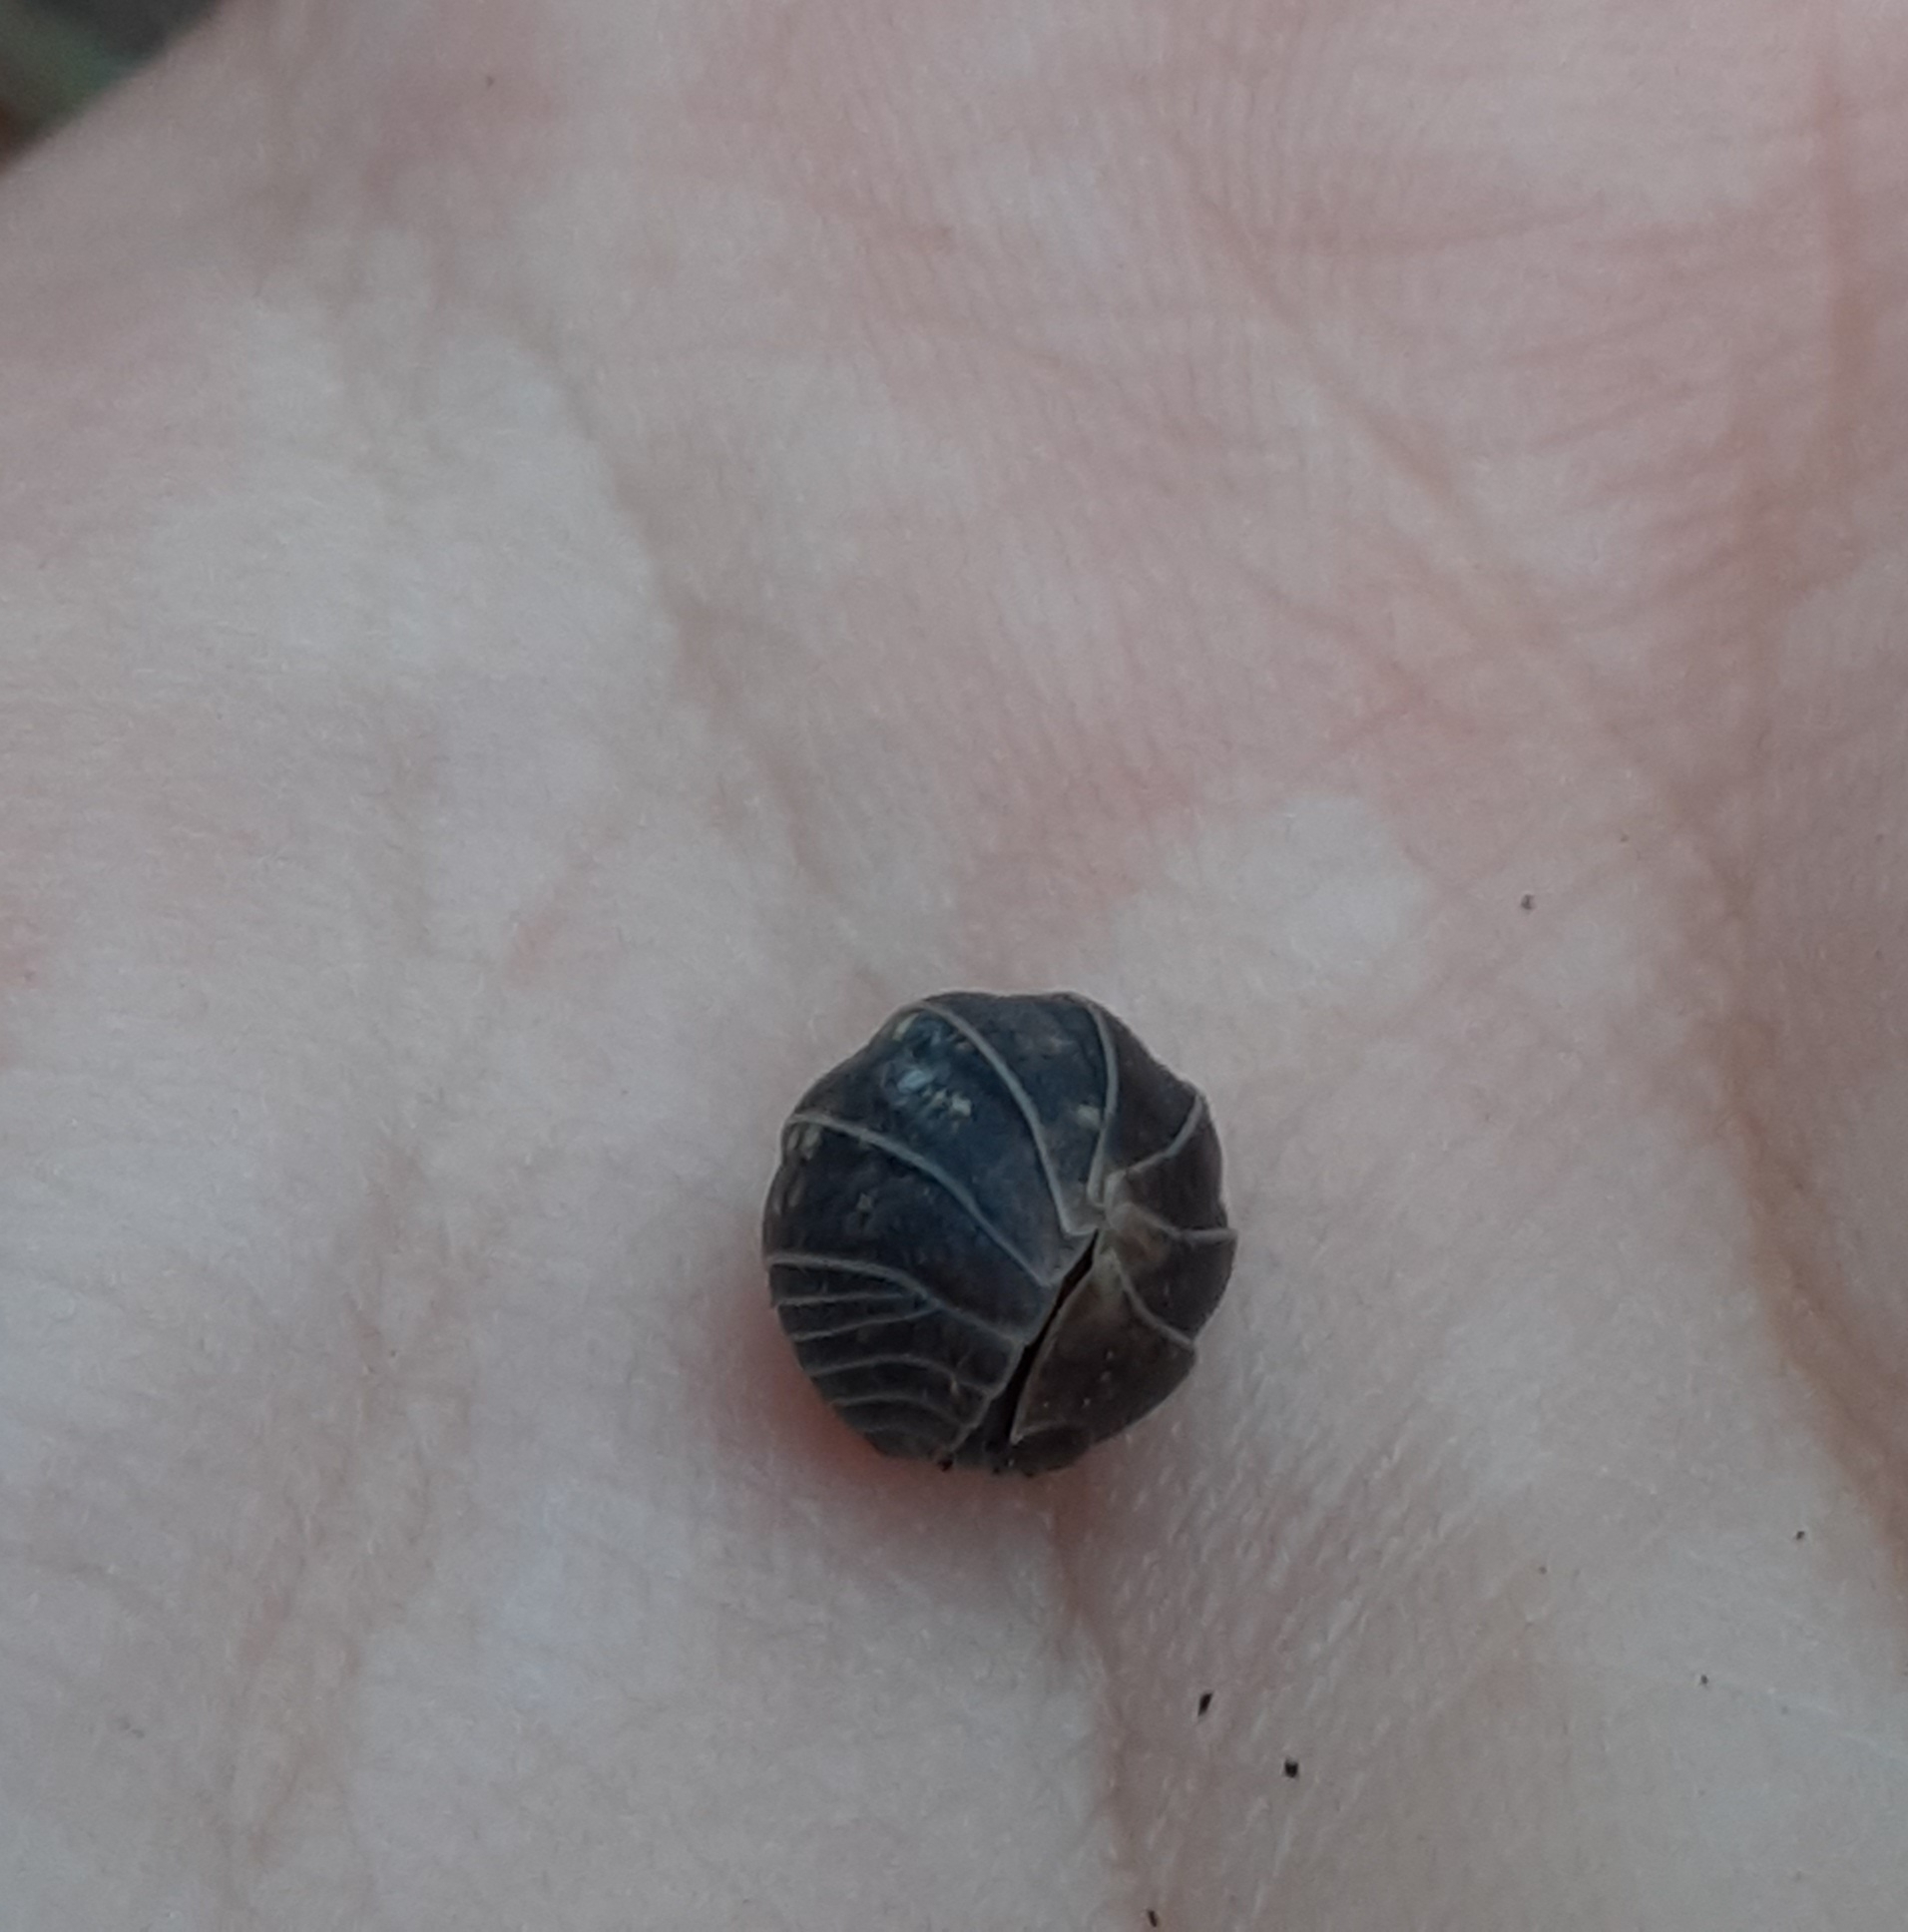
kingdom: Animalia
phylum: Arthropoda
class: Malacostraca
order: Isopoda
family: Armadillidiidae
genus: Armadillidium
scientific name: Armadillidium vulgare
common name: Common pill woodlouse
